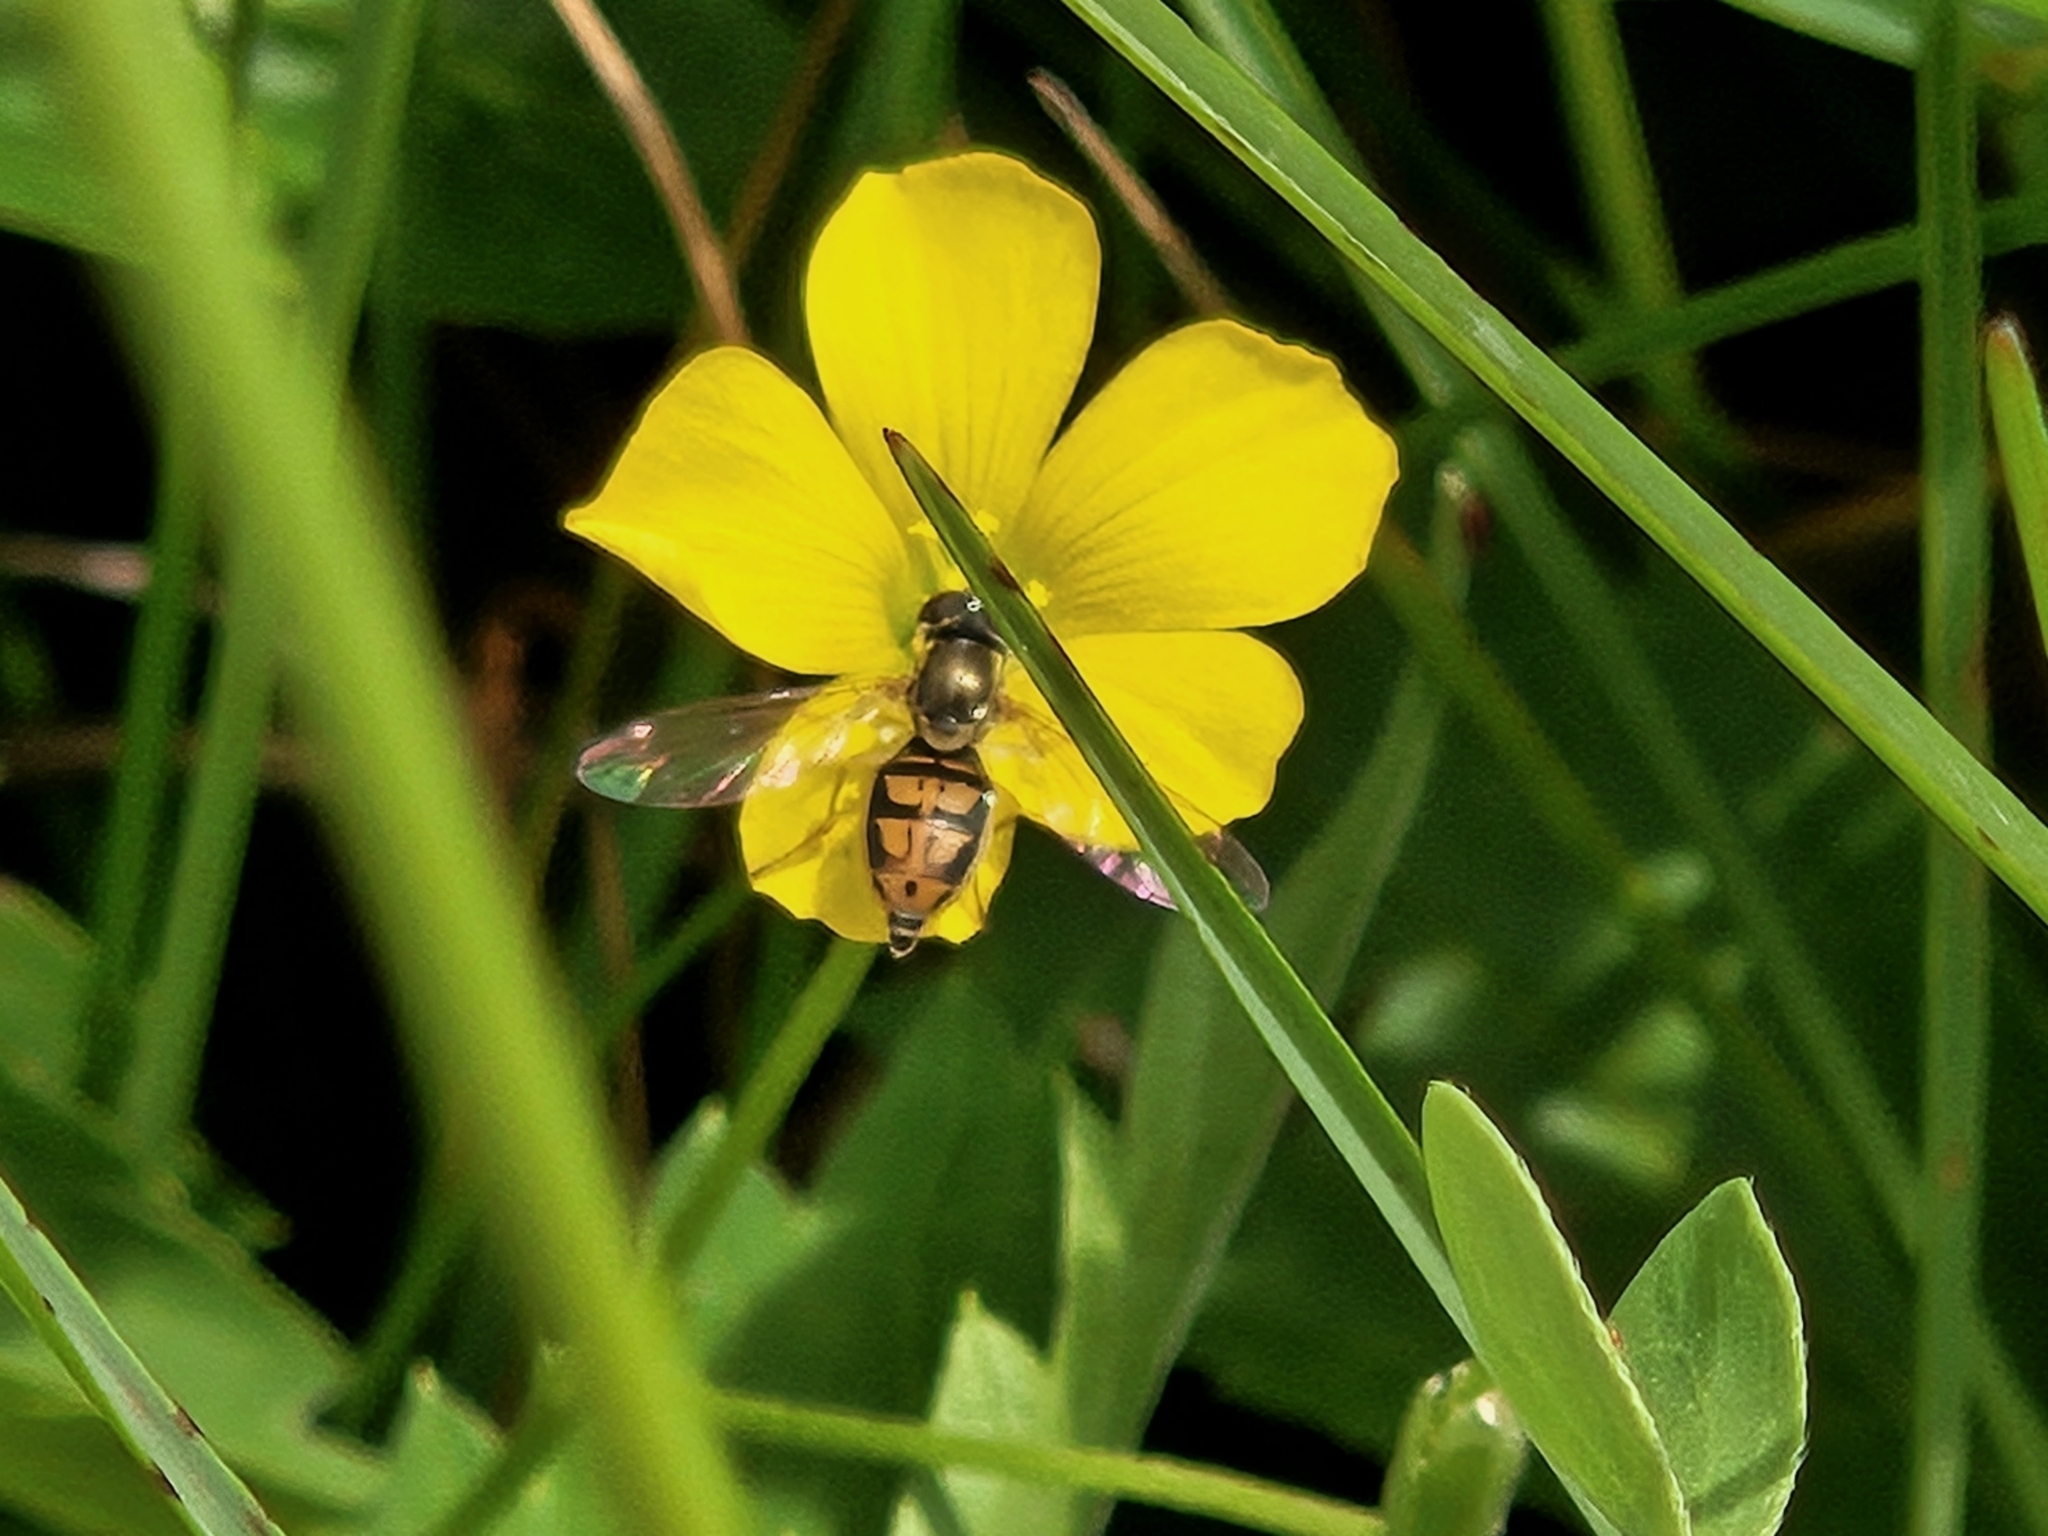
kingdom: Animalia
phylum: Arthropoda
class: Insecta
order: Diptera
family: Syrphidae
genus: Toxomerus
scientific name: Toxomerus marginatus
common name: Syrphid fly
